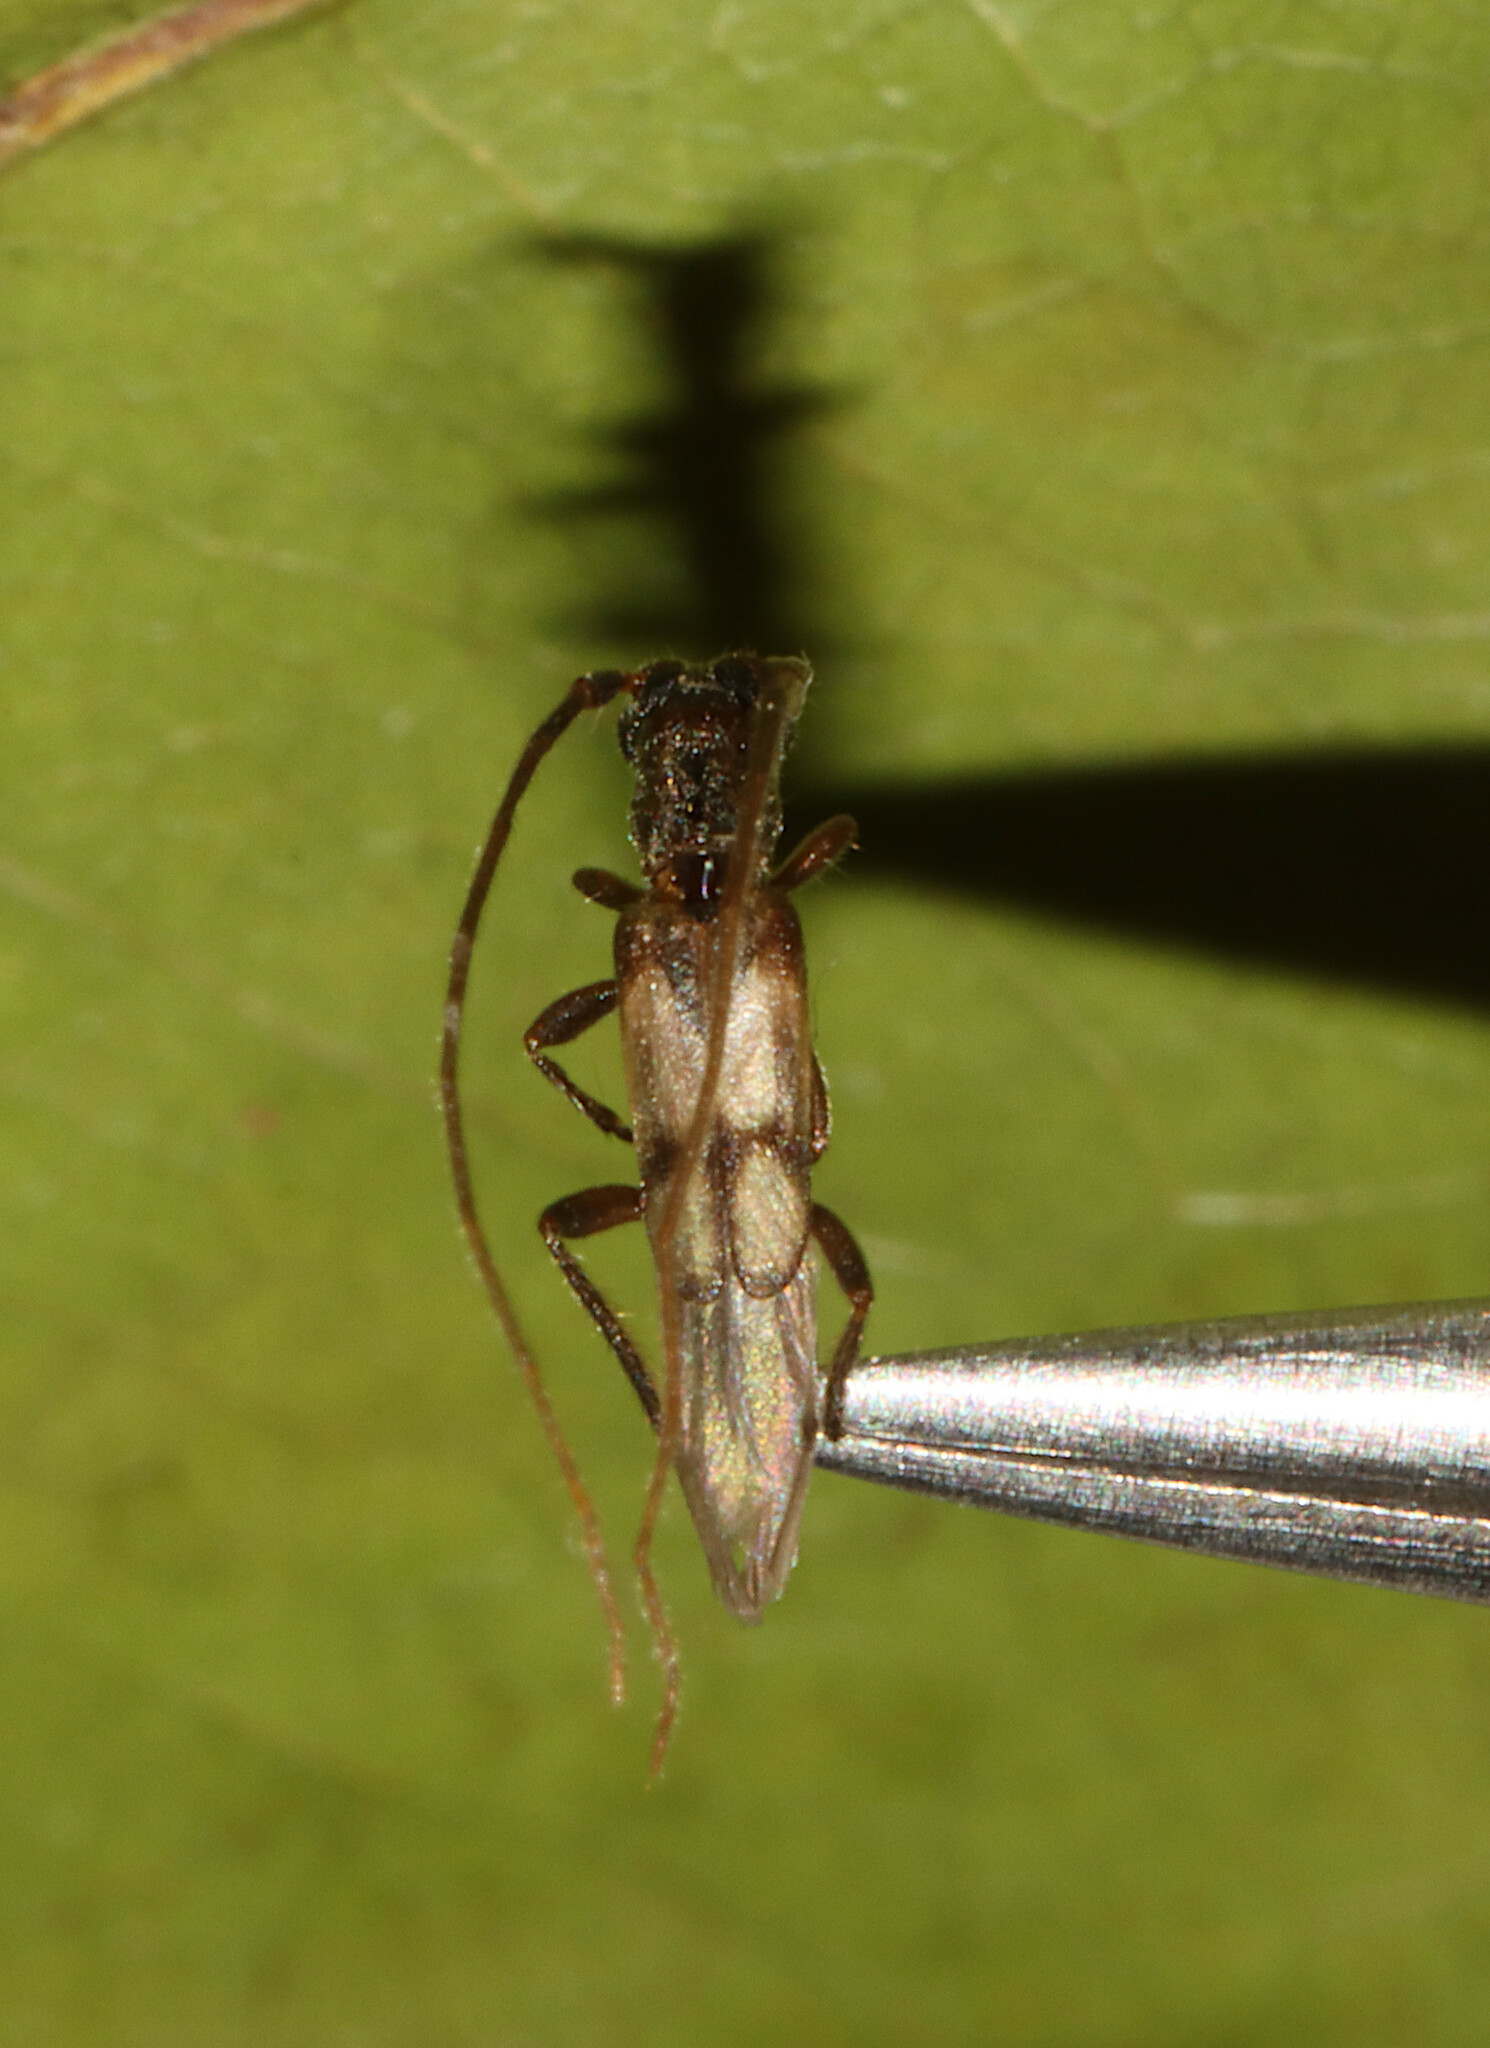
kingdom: Animalia
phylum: Arthropoda
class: Insecta
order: Coleoptera
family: Cerambycidae
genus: Methia
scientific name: Methia necydalea
